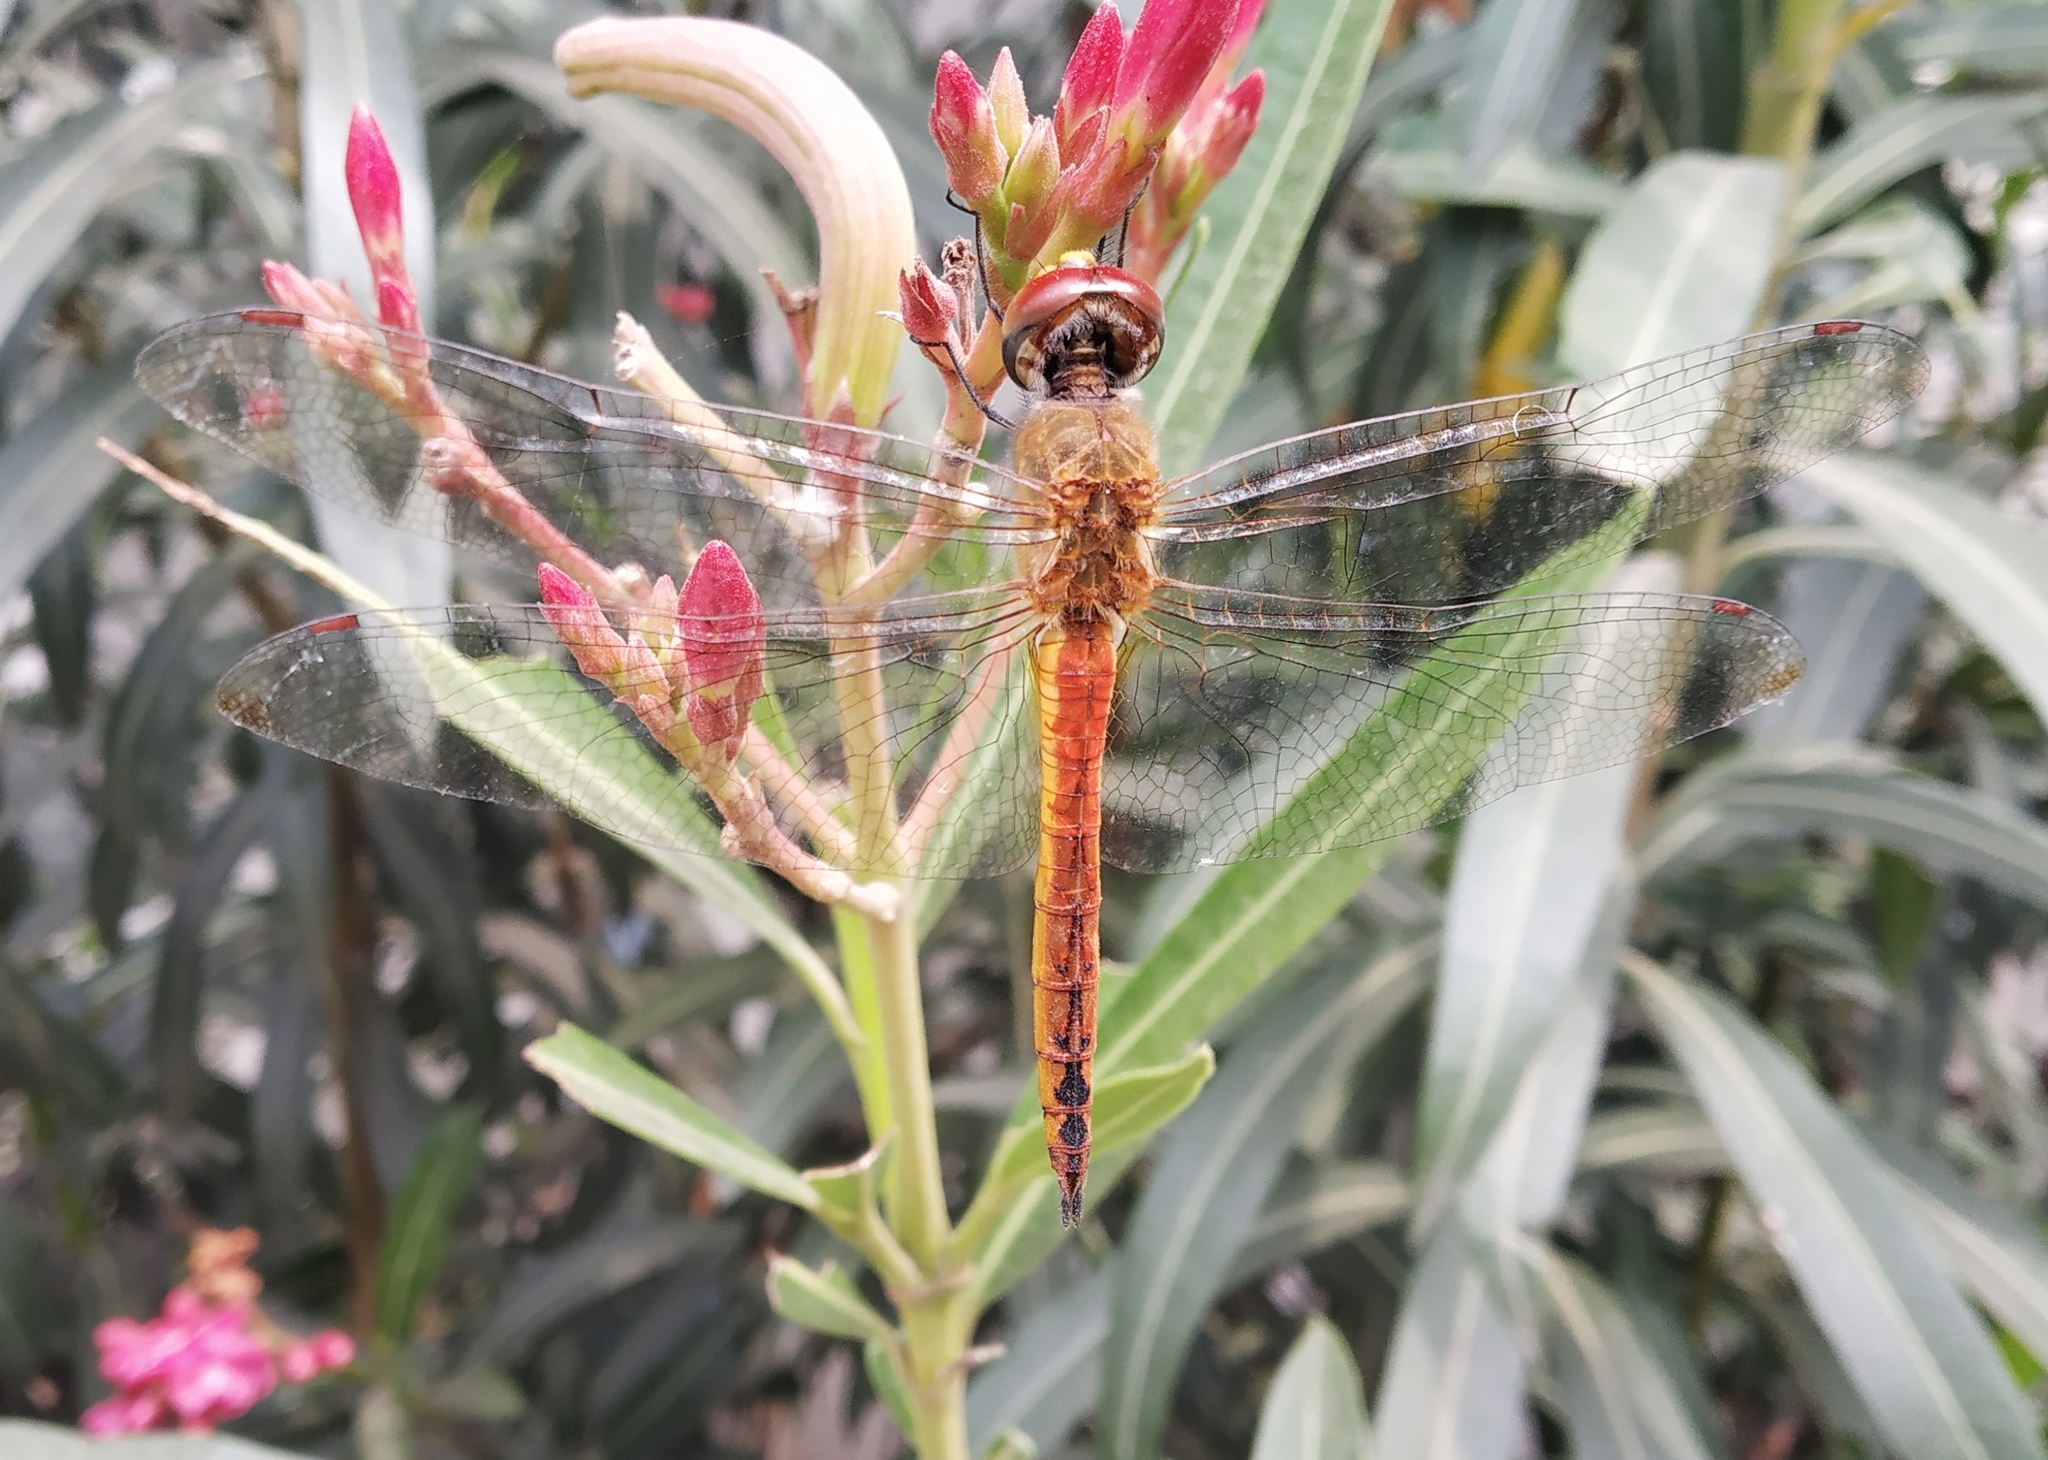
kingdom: Animalia
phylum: Arthropoda
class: Insecta
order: Odonata
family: Libellulidae
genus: Pantala
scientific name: Pantala flavescens
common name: Wandering glider
